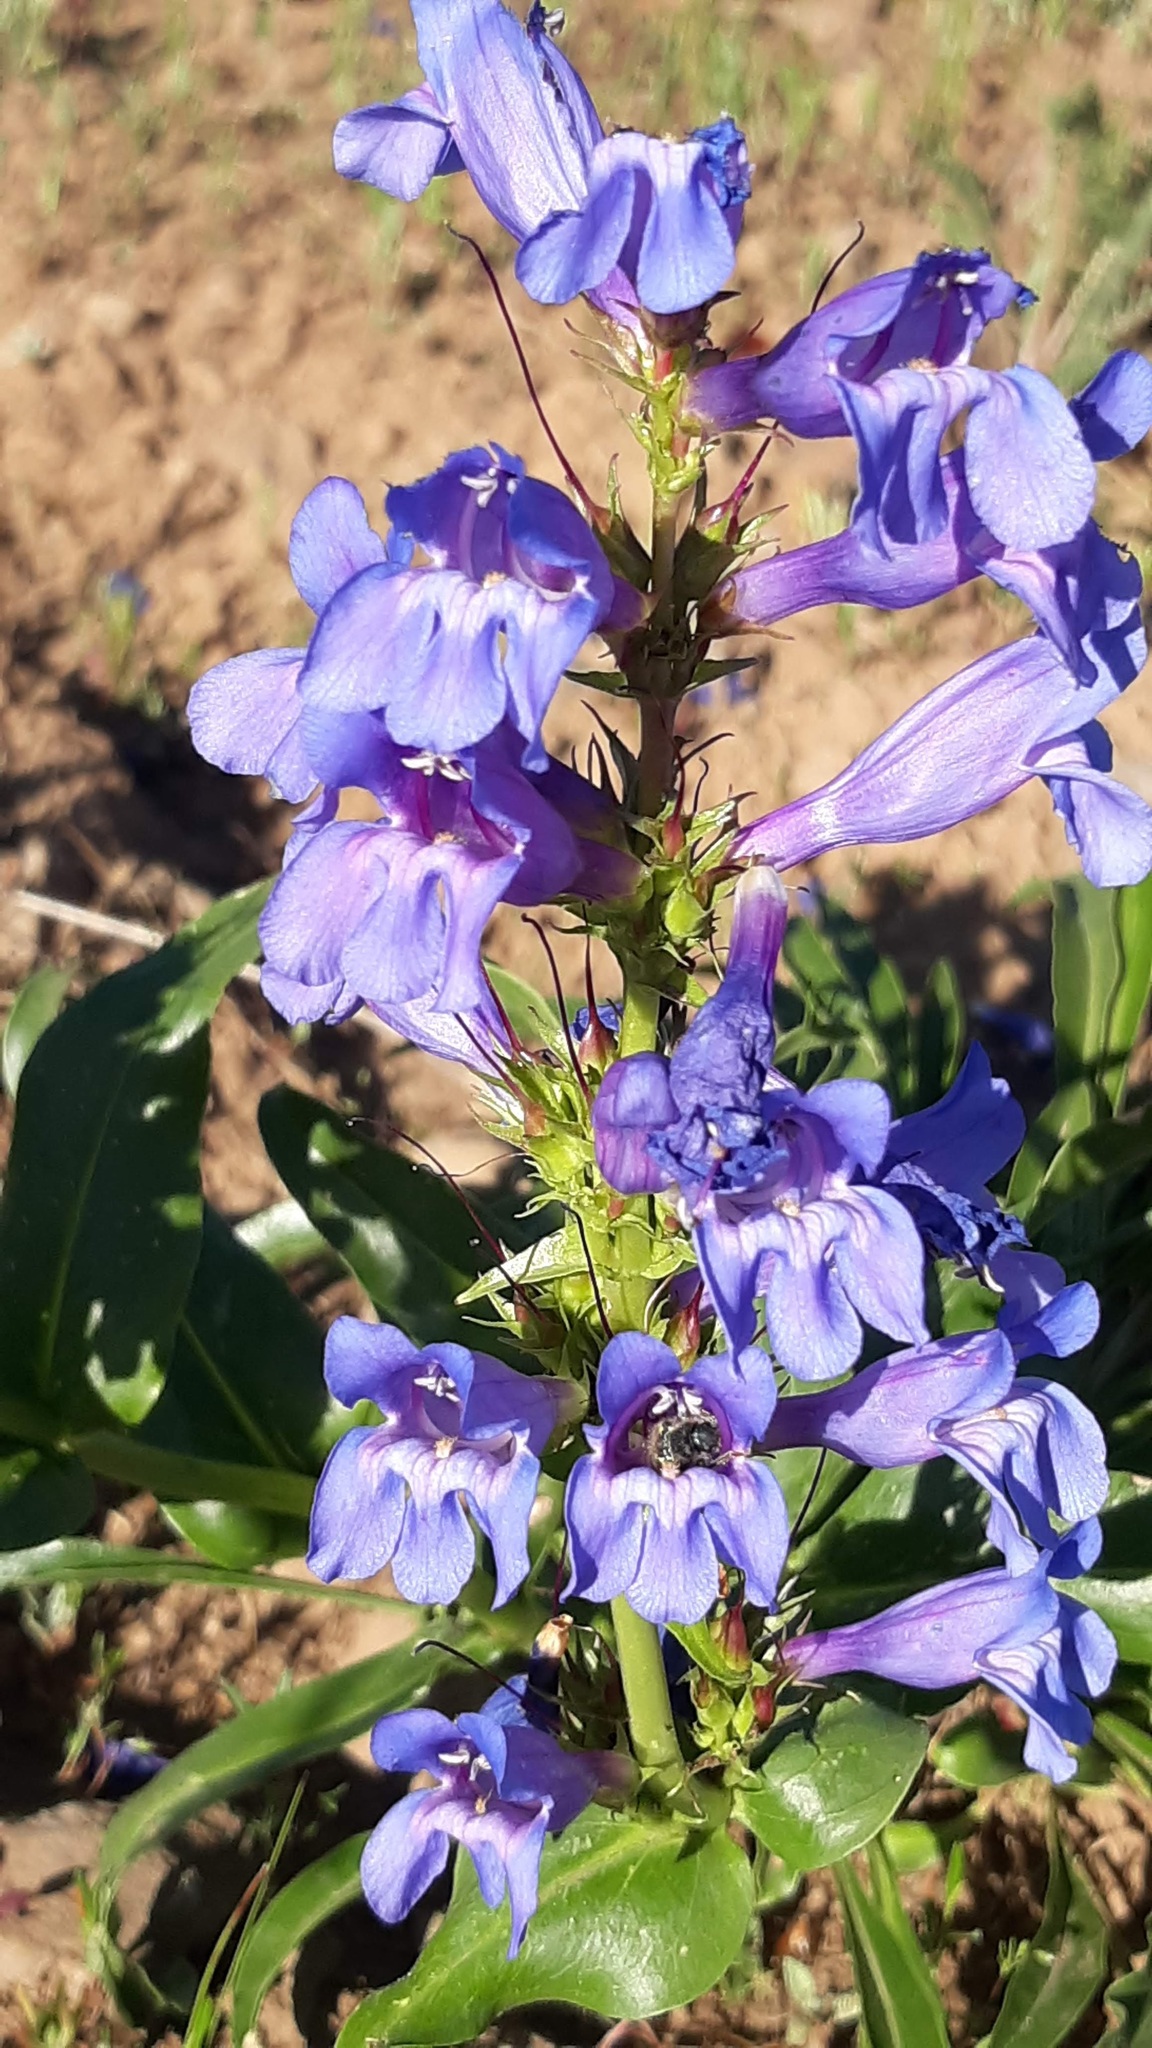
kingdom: Plantae
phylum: Tracheophyta
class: Magnoliopsida
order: Lamiales
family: Plantaginaceae
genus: Penstemon
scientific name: Penstemon pennellianus
